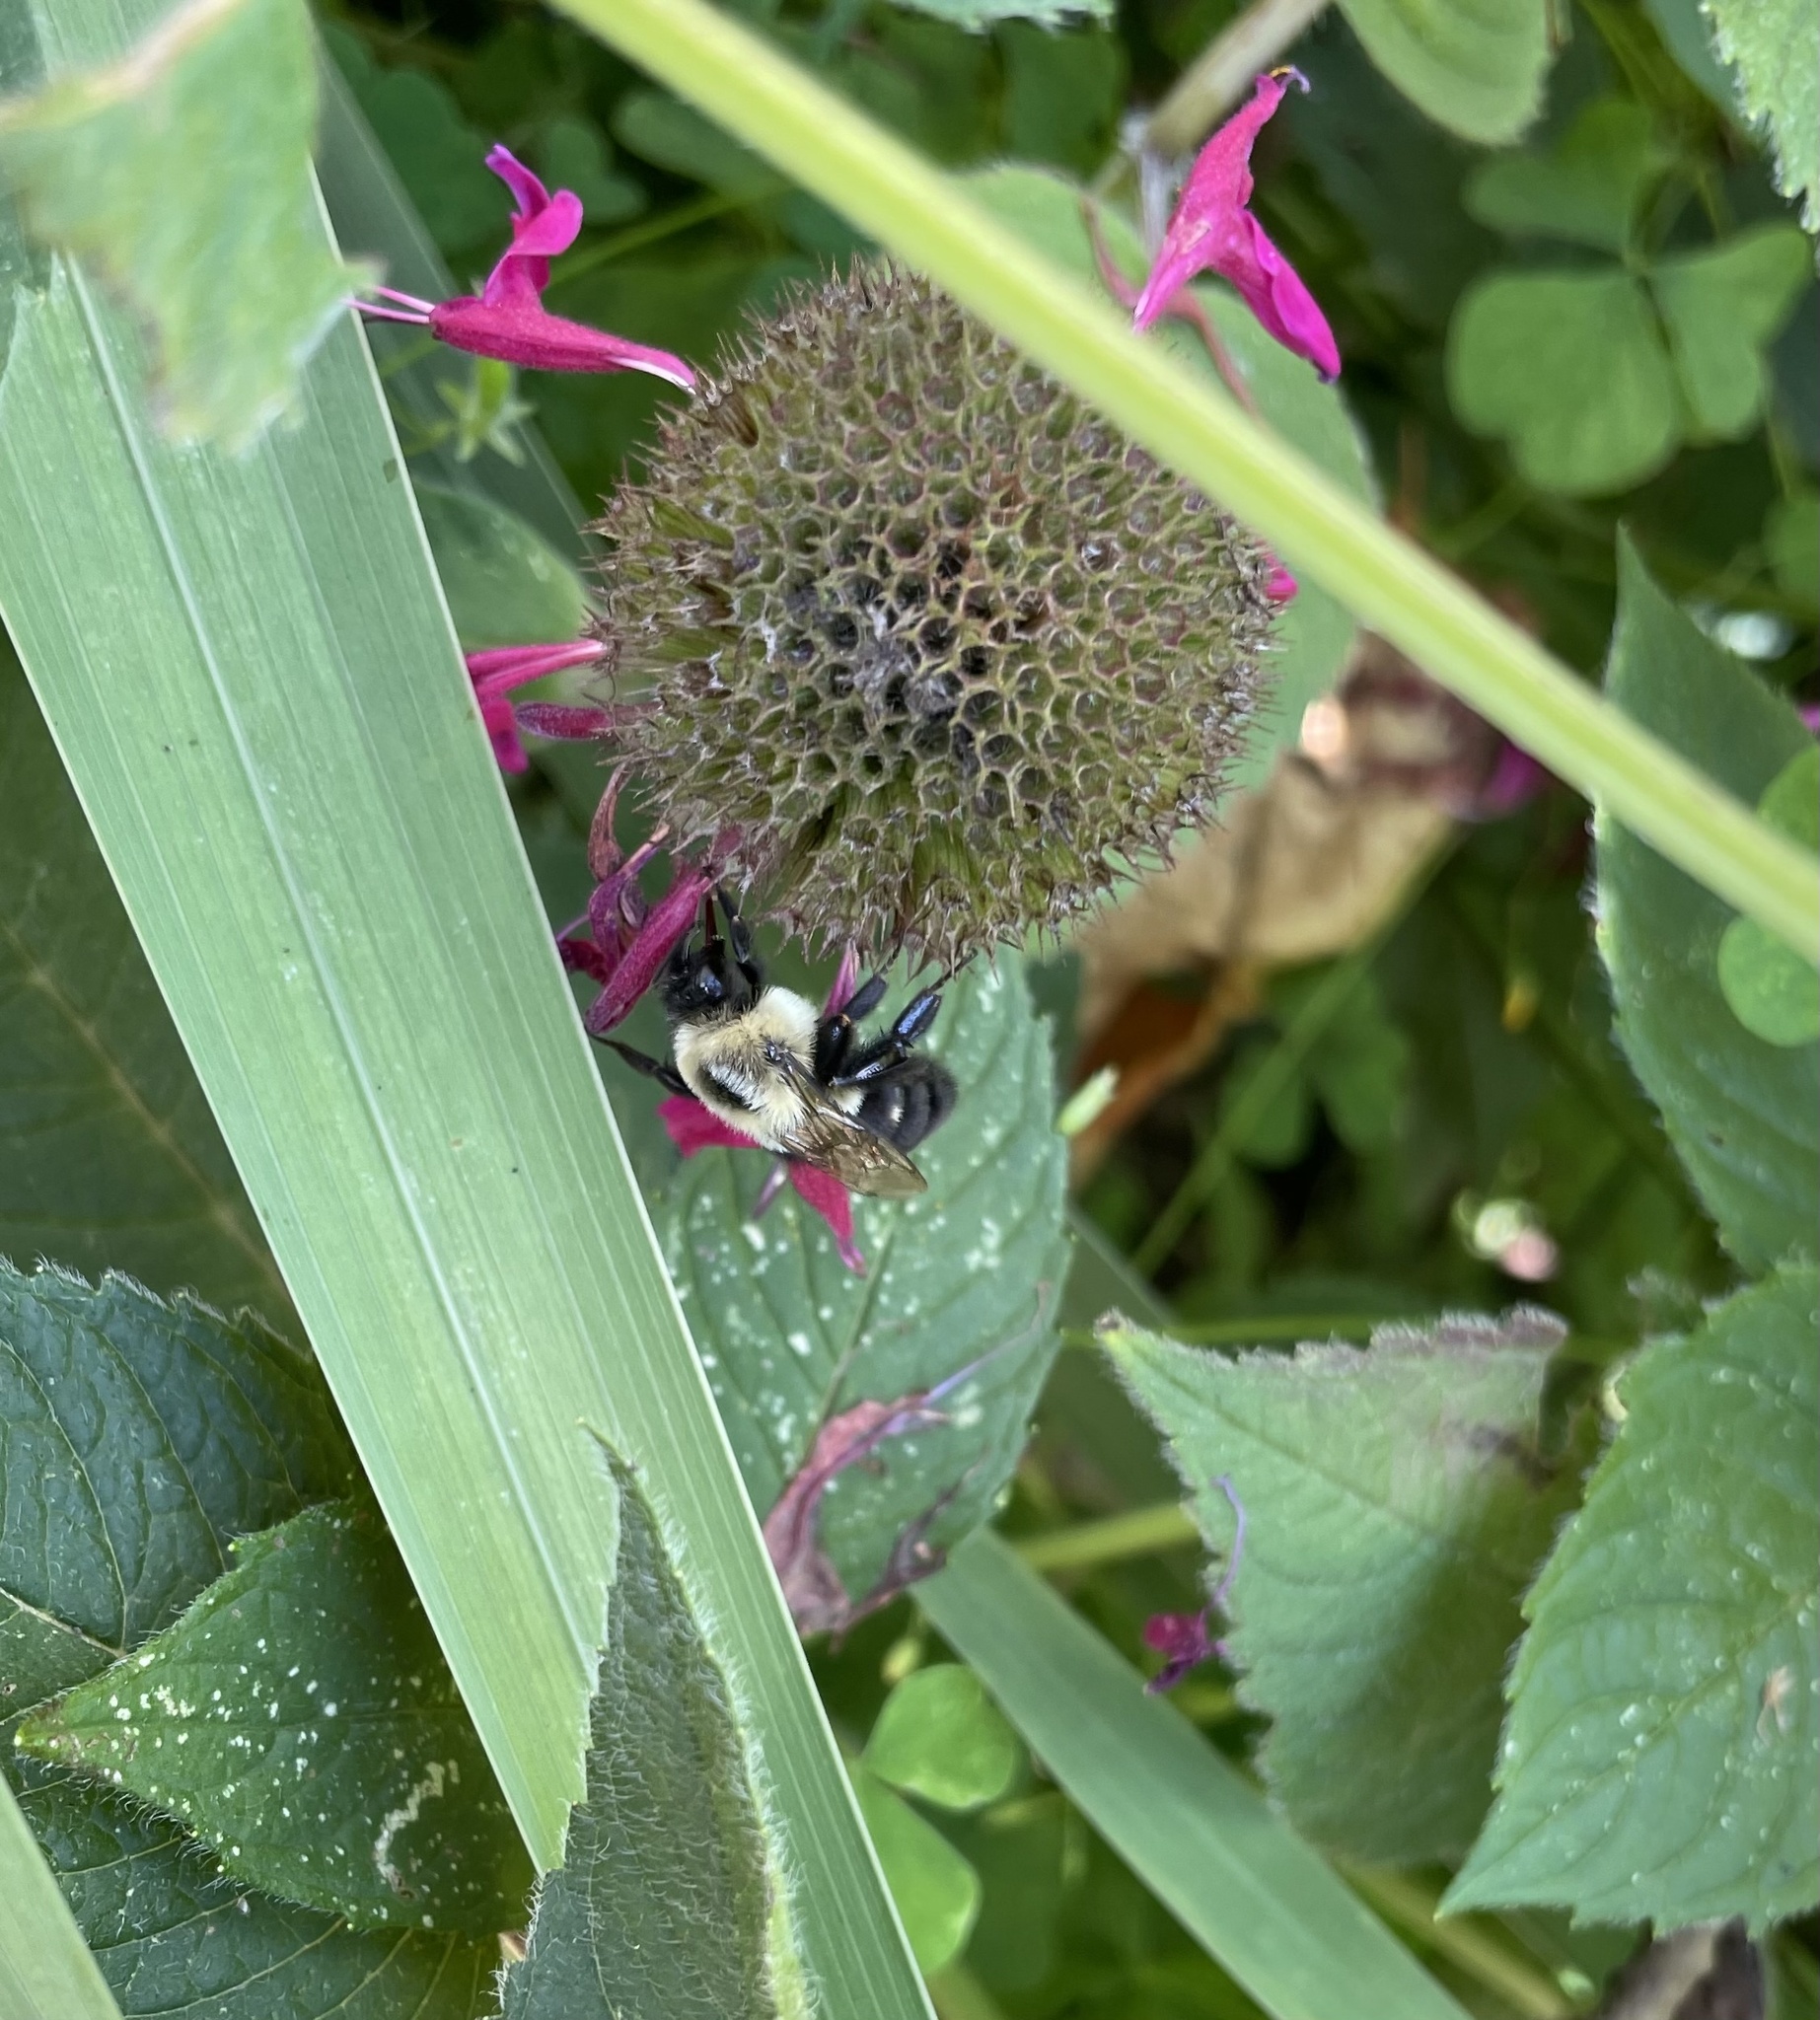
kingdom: Animalia
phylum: Arthropoda
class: Insecta
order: Hymenoptera
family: Apidae
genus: Bombus
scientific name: Bombus impatiens
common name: Common eastern bumble bee
